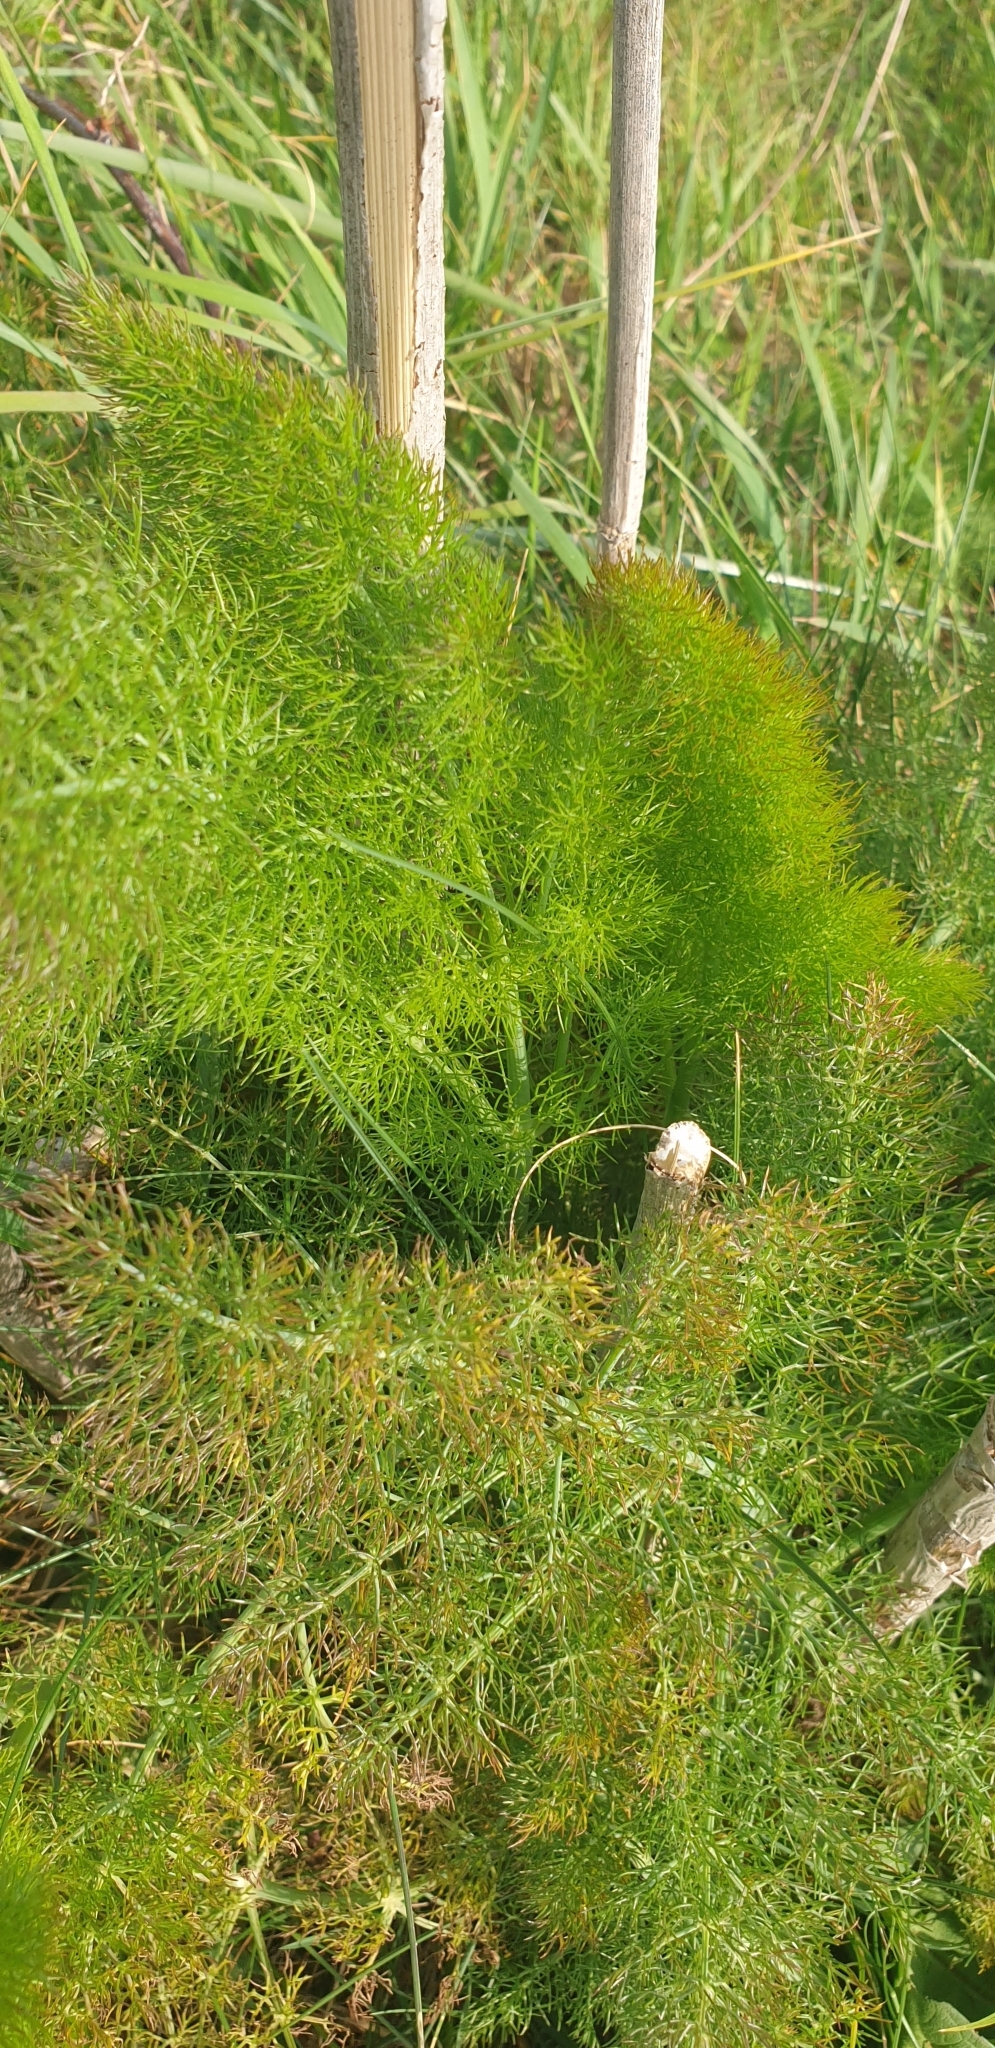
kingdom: Plantae
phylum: Tracheophyta
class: Magnoliopsida
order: Apiales
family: Apiaceae
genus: Foeniculum
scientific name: Foeniculum vulgare
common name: Fennel
